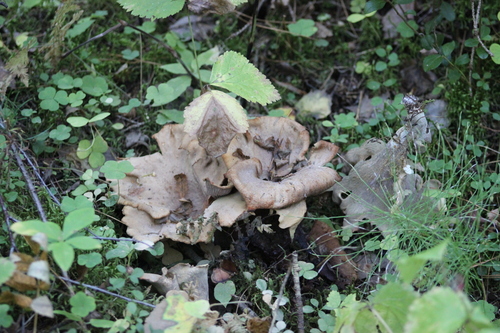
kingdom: Fungi
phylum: Basidiomycota
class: Agaricomycetes
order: Gomphales
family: Gomphaceae
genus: Gomphus
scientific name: Gomphus clavatus
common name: Pig's ear
